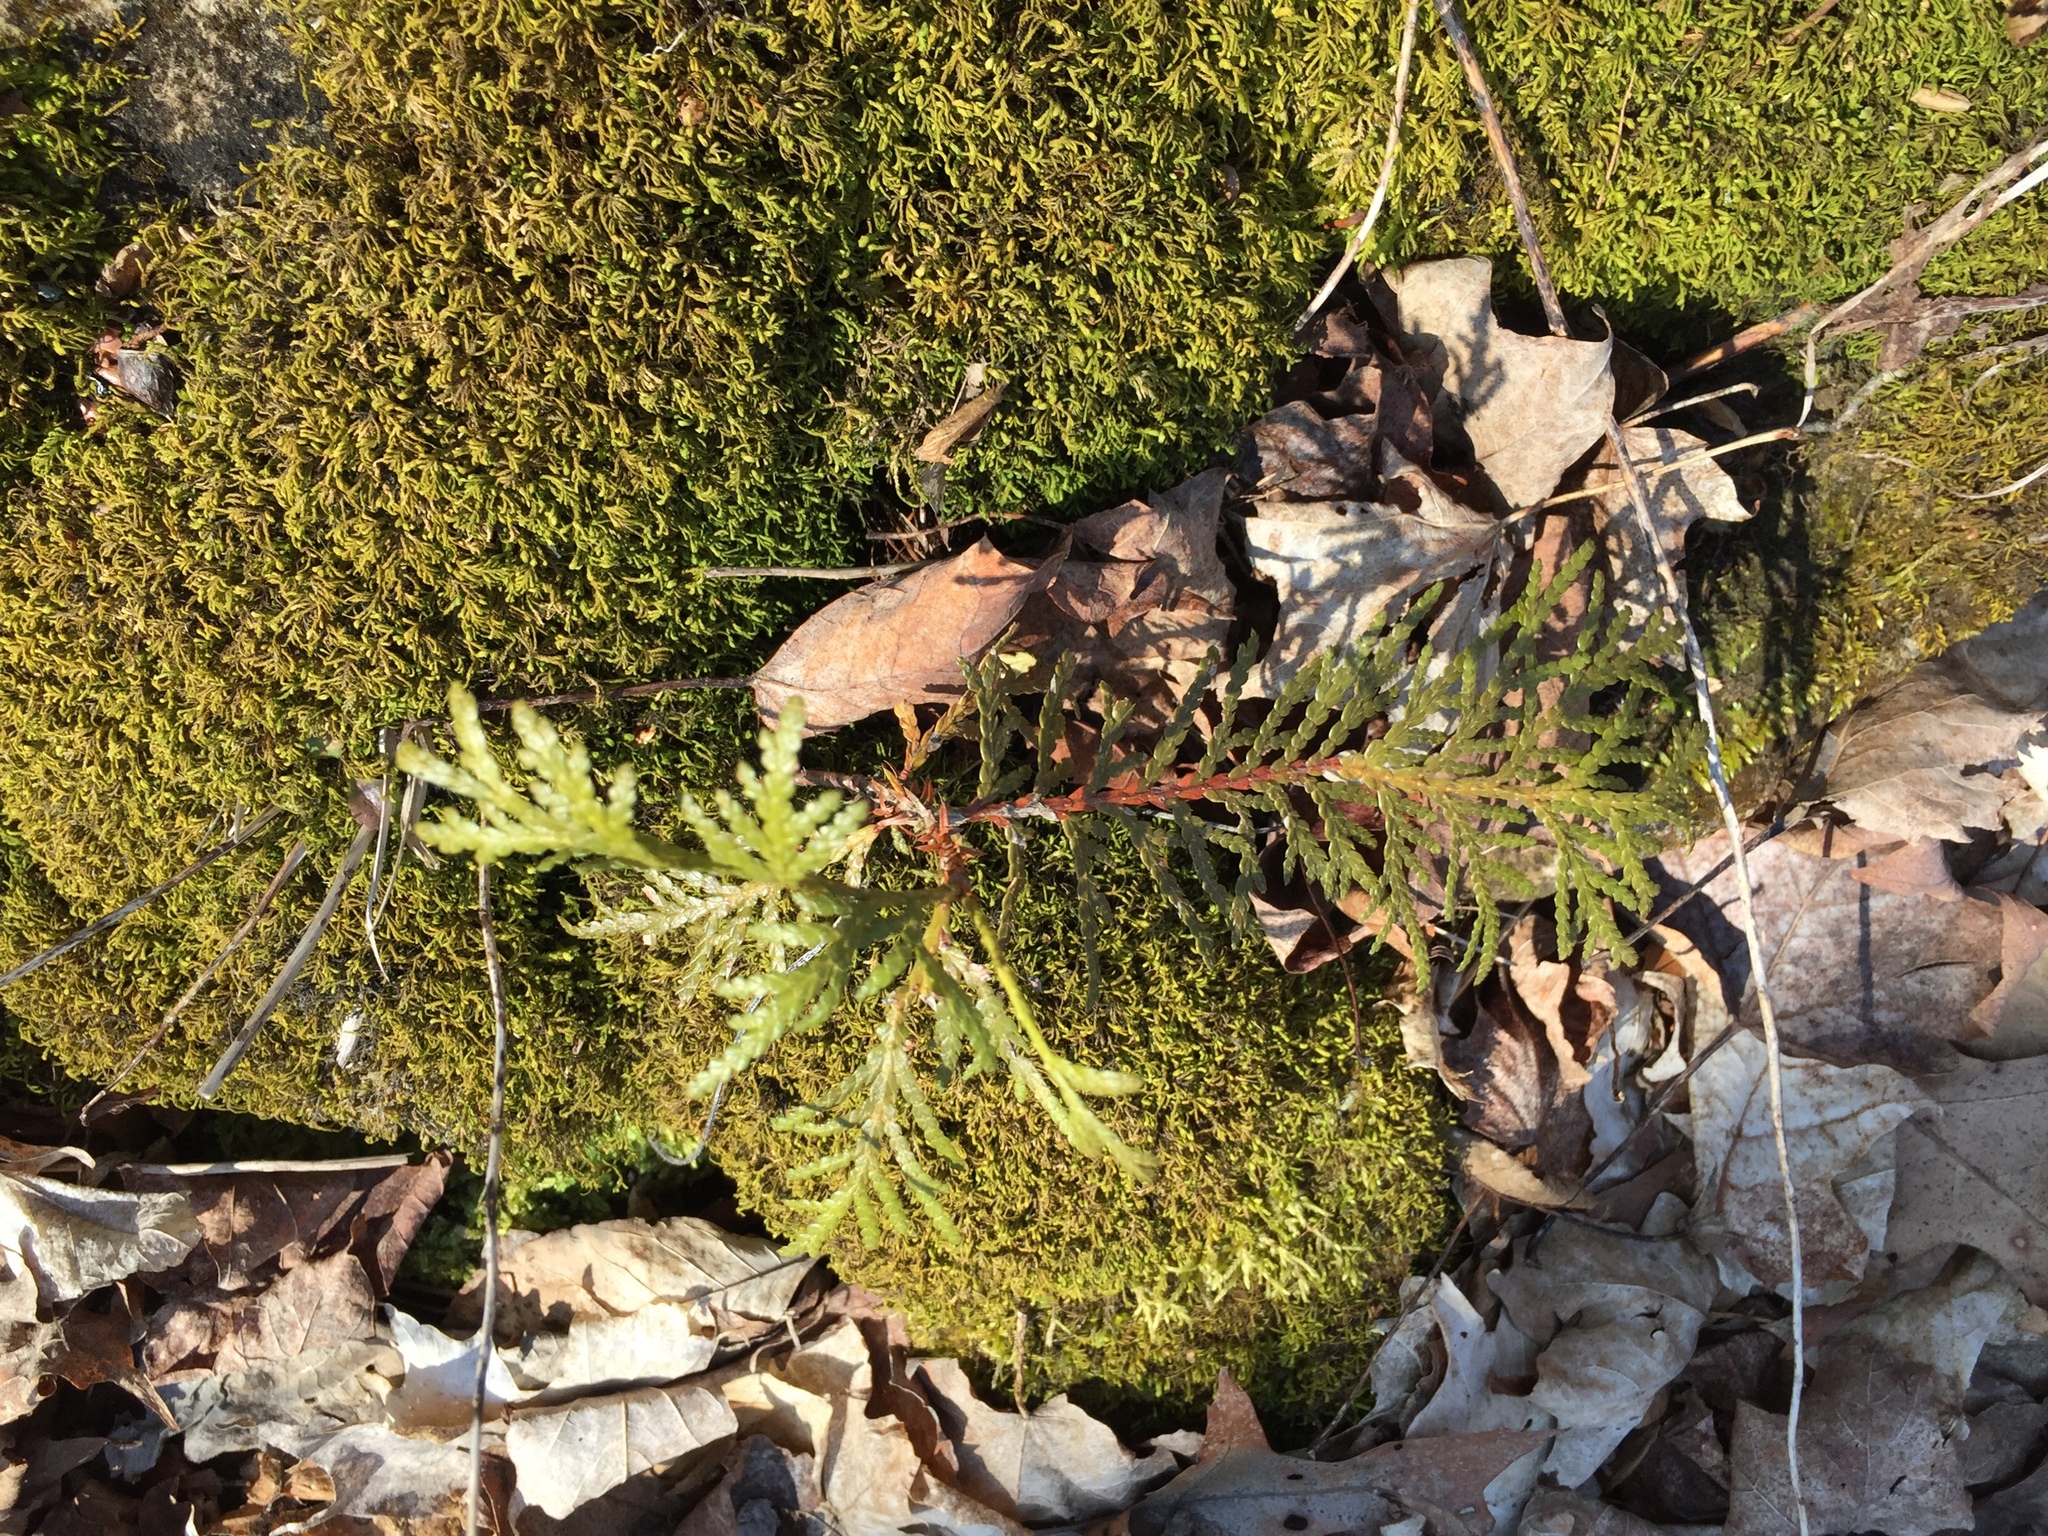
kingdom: Plantae
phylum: Tracheophyta
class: Pinopsida
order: Pinales
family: Cupressaceae
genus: Thuja
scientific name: Thuja occidentalis
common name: Northern white-cedar
